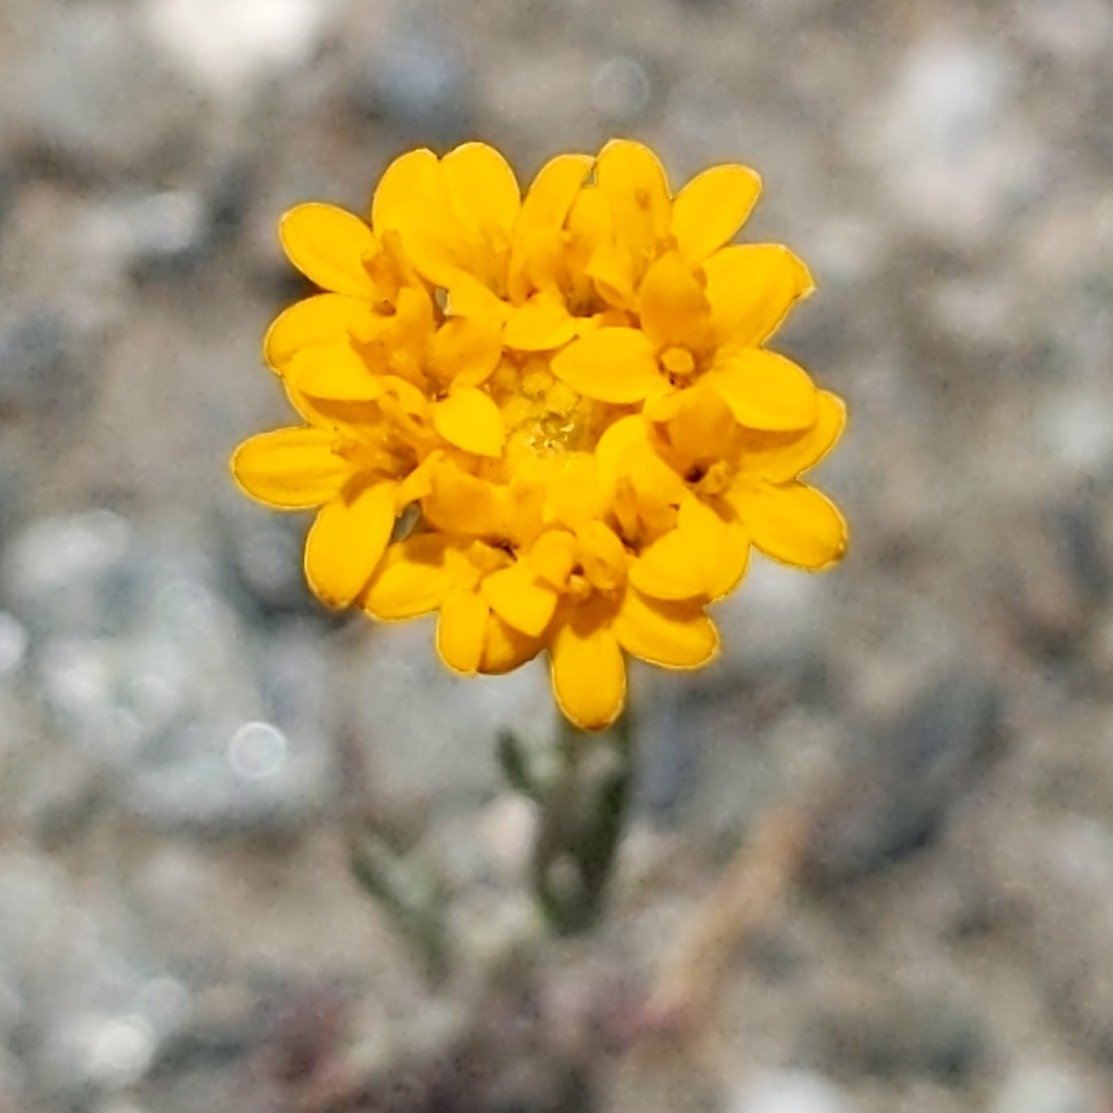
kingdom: Plantae
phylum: Tracheophyta
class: Magnoliopsida
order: Asterales
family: Asteraceae
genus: Chaenactis
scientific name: Chaenactis glabriuscula
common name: Yellow pincushion
